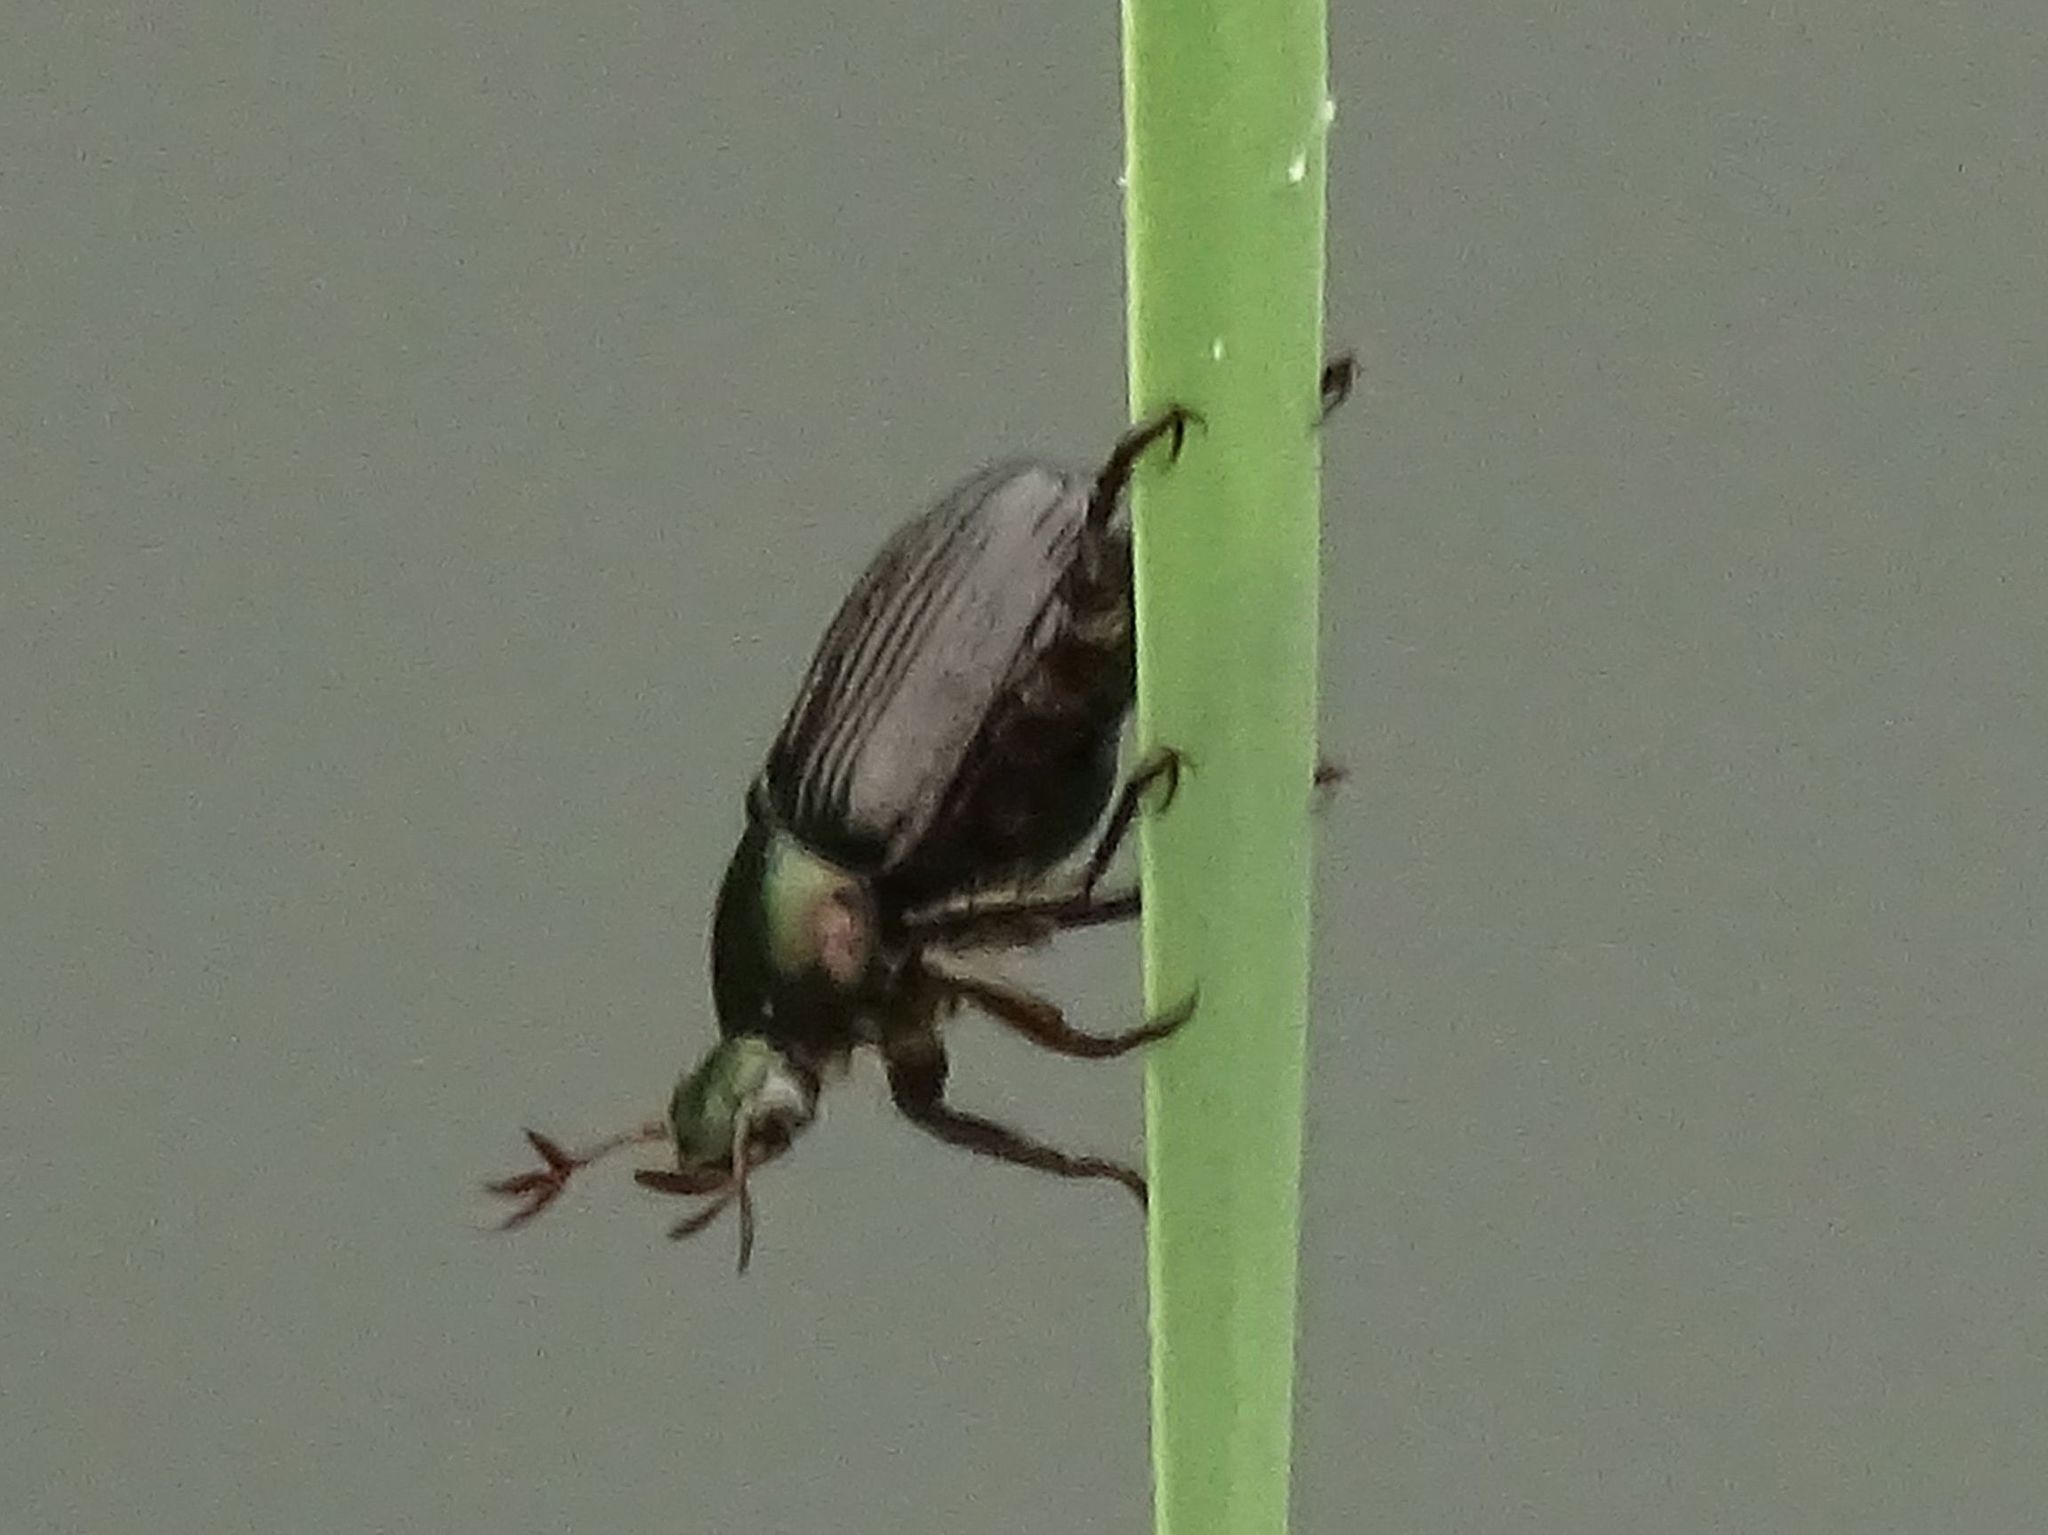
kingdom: Animalia
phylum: Arthropoda
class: Insecta
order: Coleoptera
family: Scarabaeidae
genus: Exomala
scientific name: Exomala orientalis
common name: Oriental beetle
